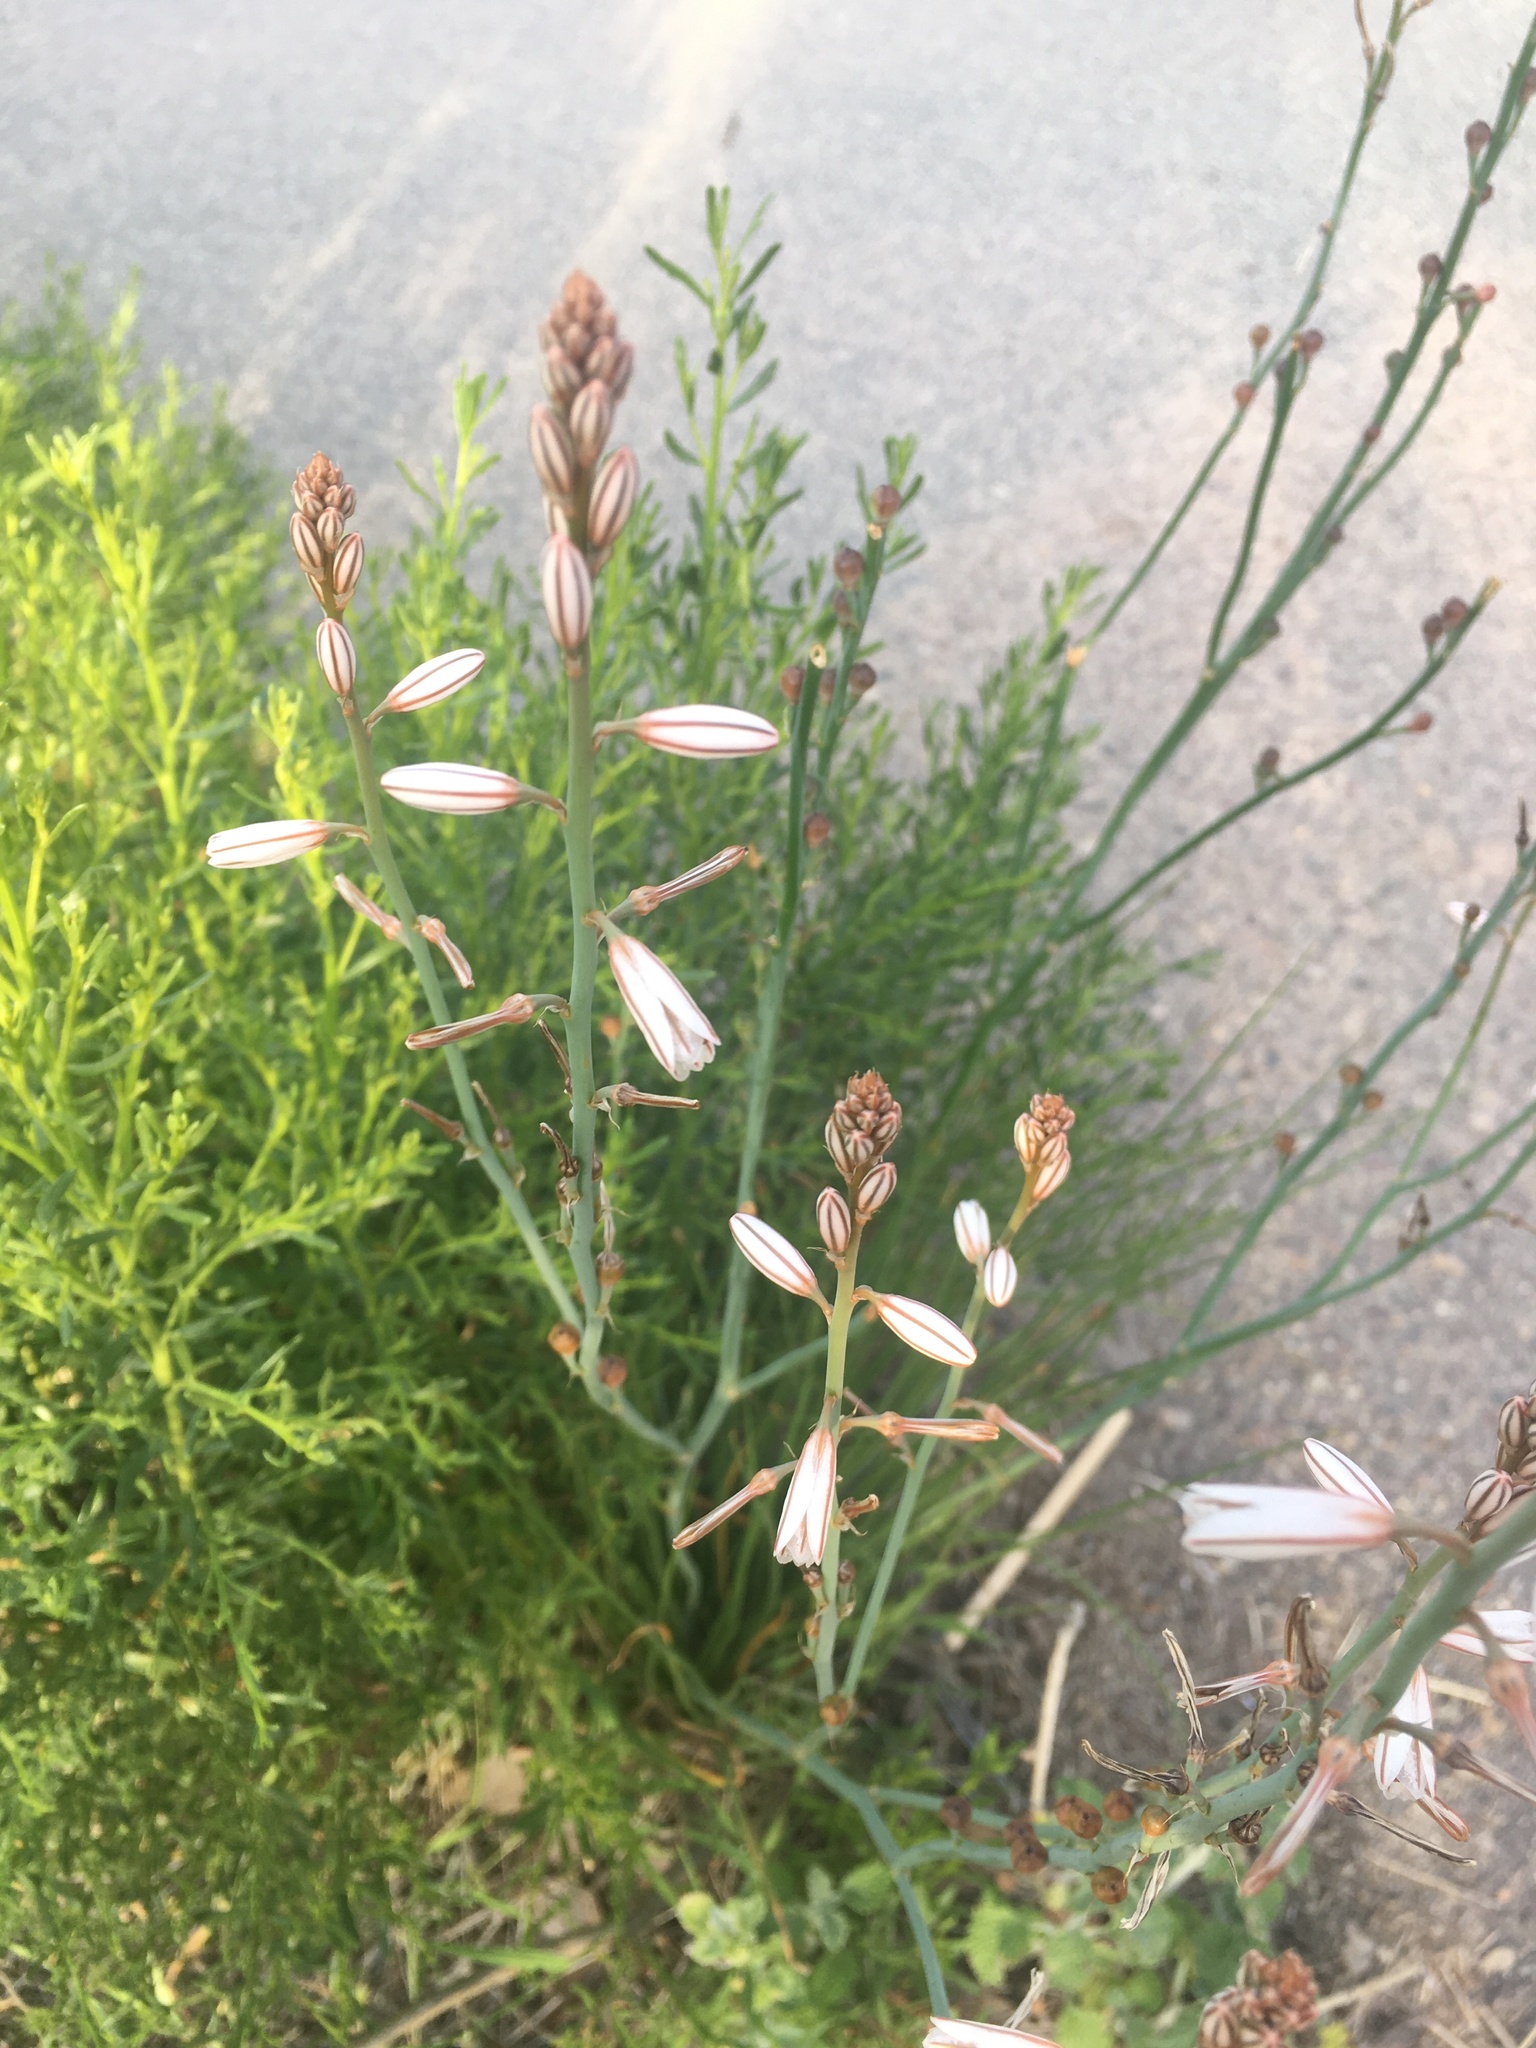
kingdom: Plantae
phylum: Tracheophyta
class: Liliopsida
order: Asparagales
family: Asphodelaceae
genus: Asphodelus
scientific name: Asphodelus fistulosus
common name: Onionweed
